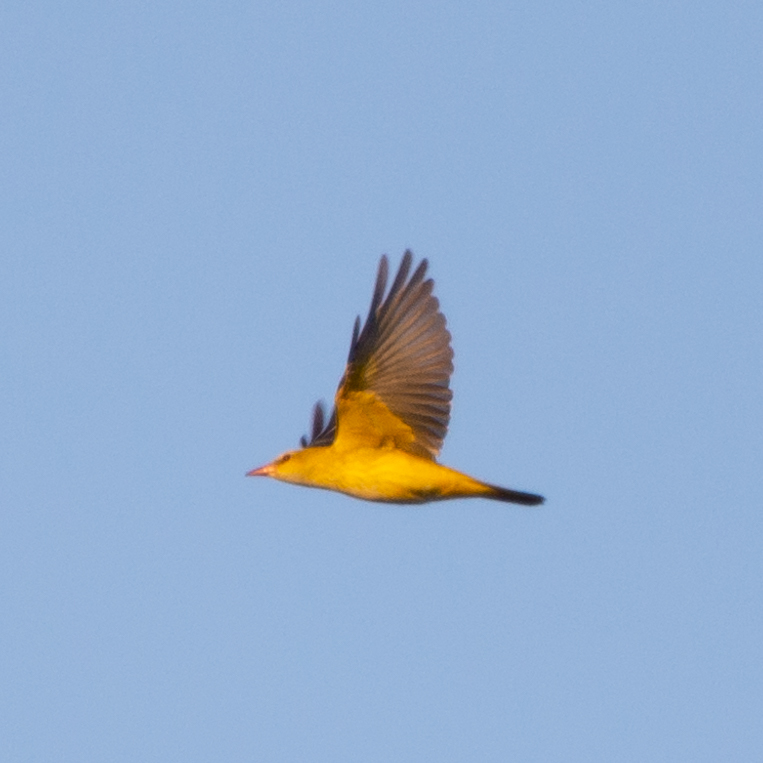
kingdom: Animalia
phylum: Chordata
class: Aves
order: Passeriformes
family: Oriolidae
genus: Oriolus
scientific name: Oriolus oriolus
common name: Eurasian golden oriole
